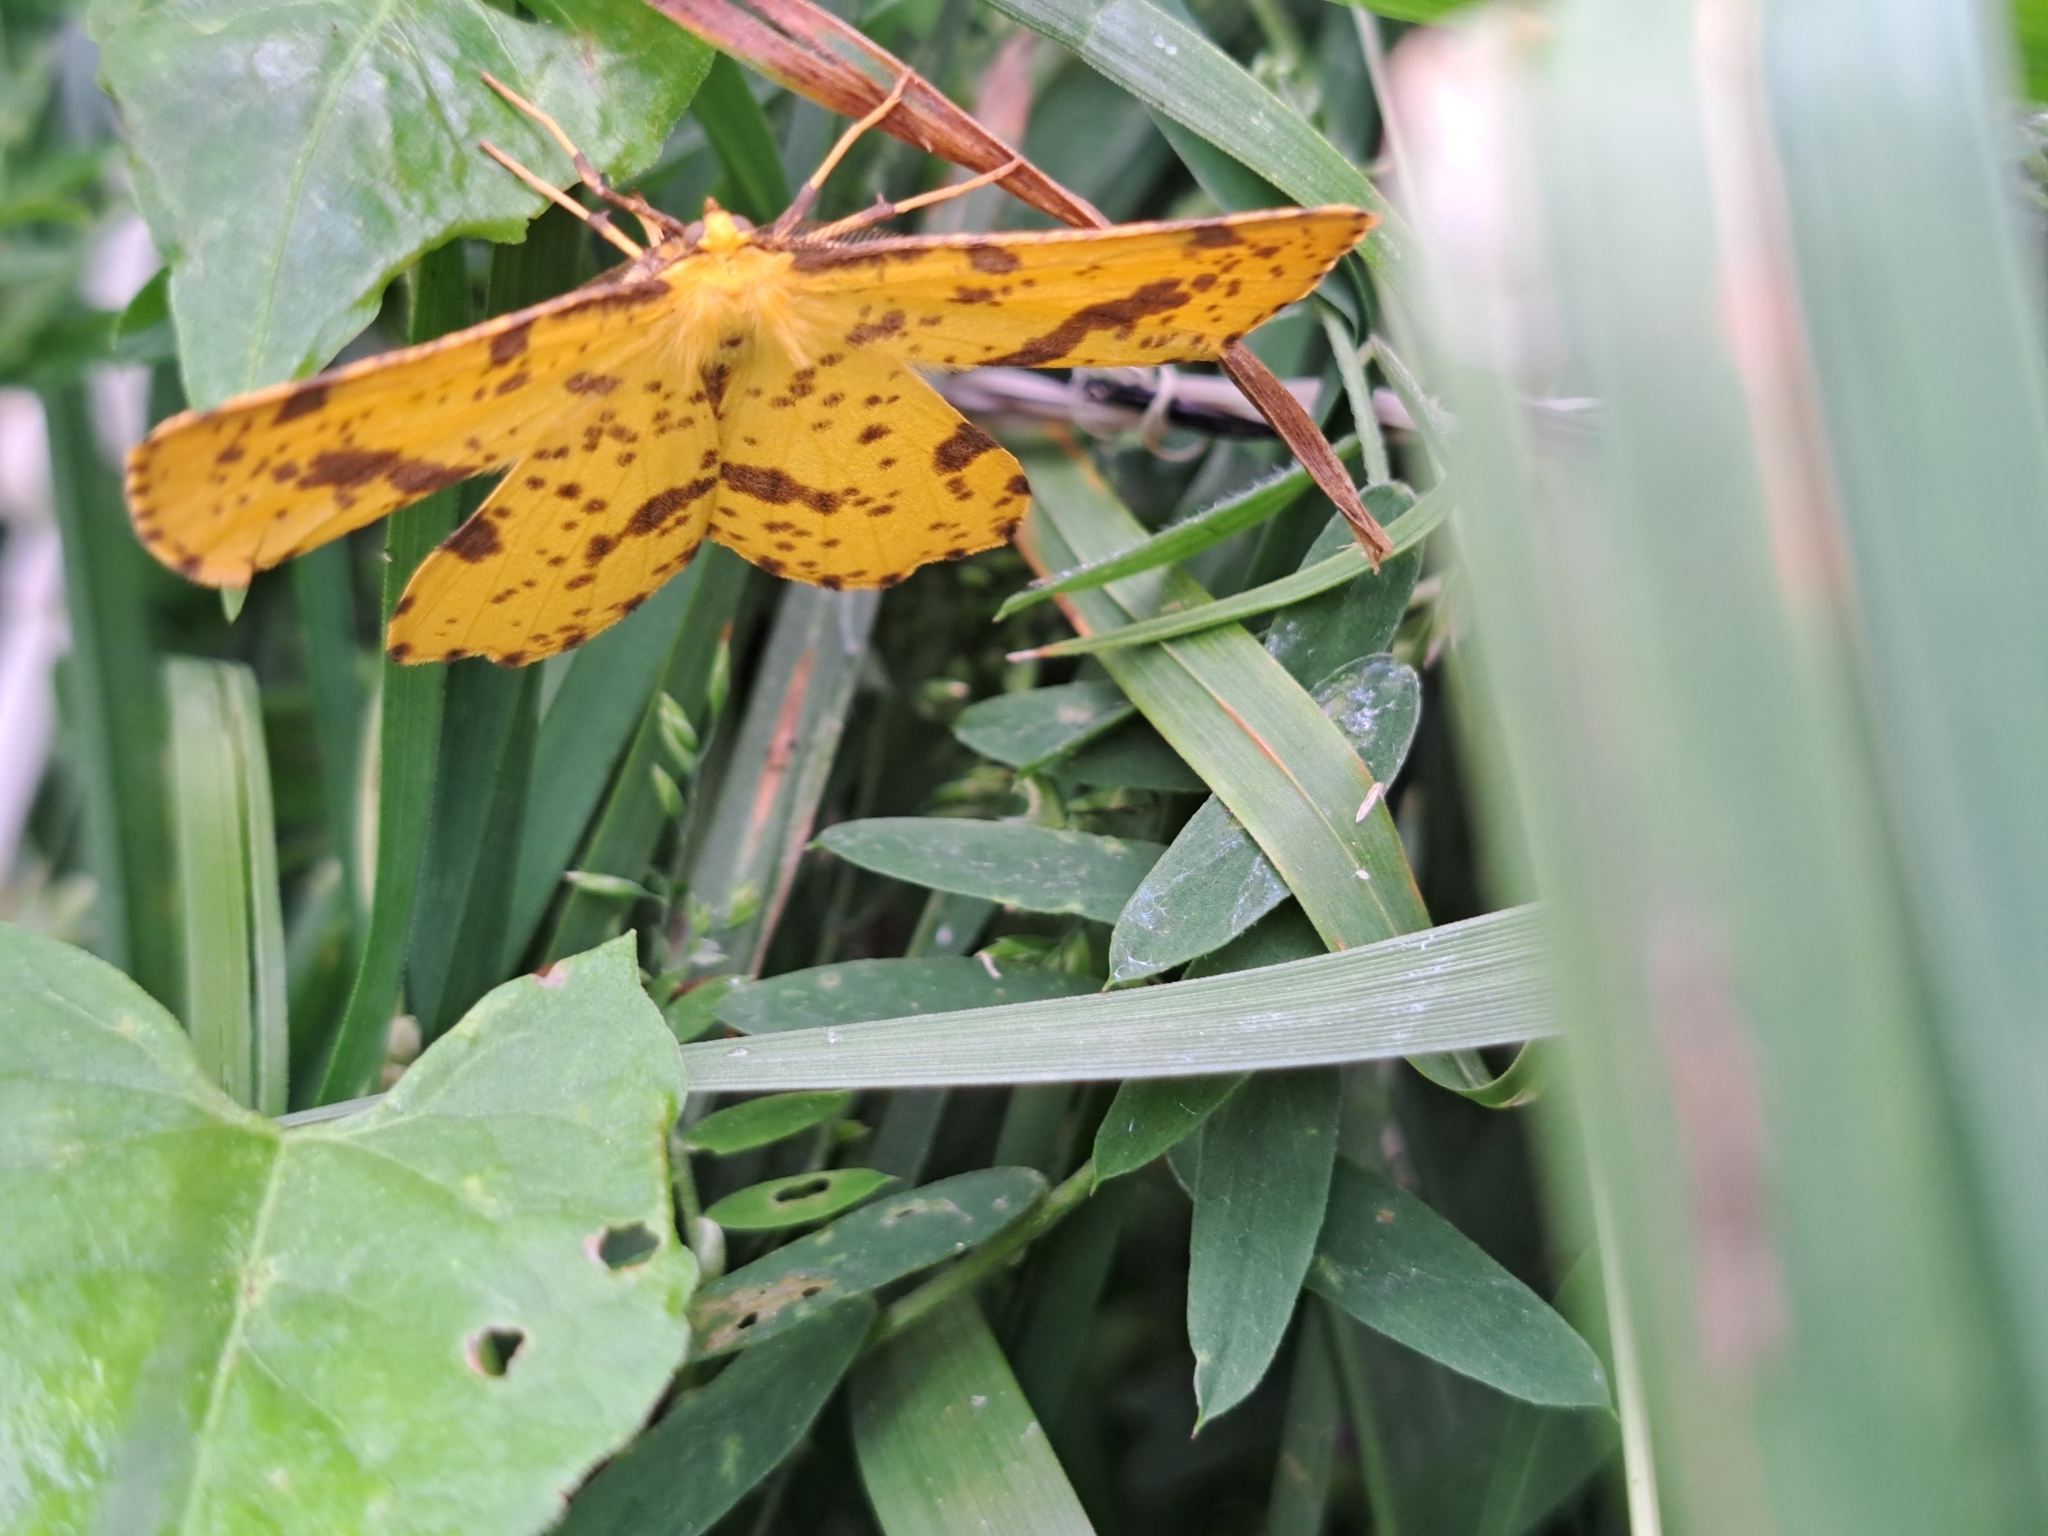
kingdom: Animalia
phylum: Arthropoda
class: Insecta
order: Lepidoptera
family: Geometridae
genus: Xanthotype
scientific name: Xanthotype
